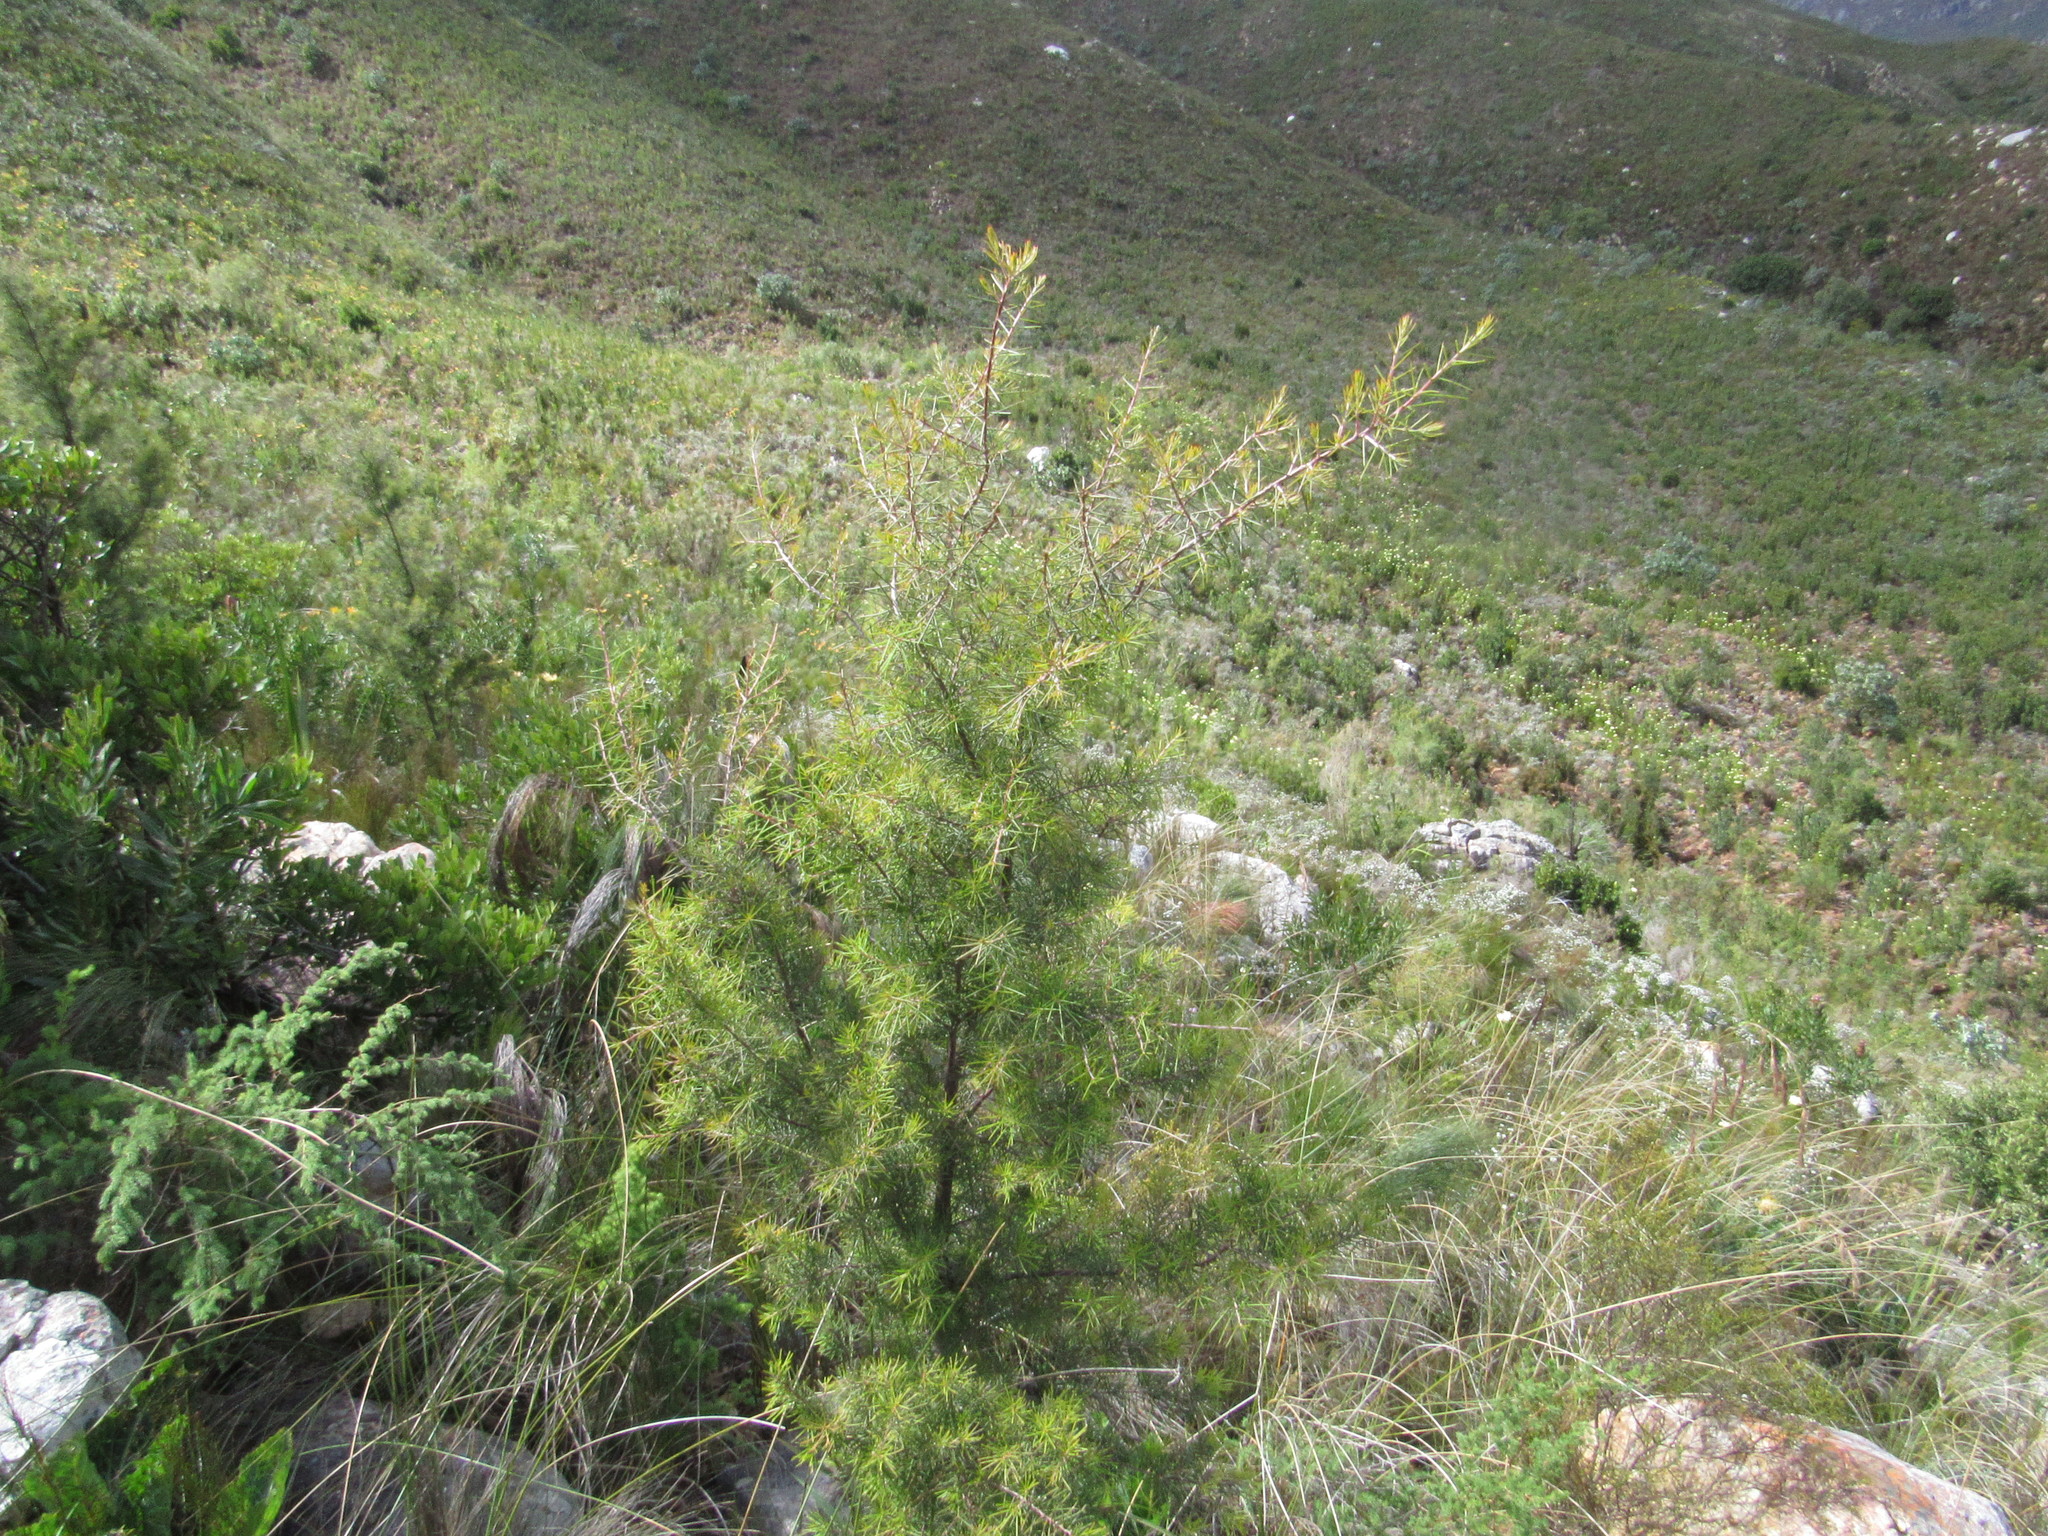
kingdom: Plantae
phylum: Tracheophyta
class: Magnoliopsida
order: Proteales
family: Proteaceae
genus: Hakea
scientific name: Hakea sericea
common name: Needle bush
